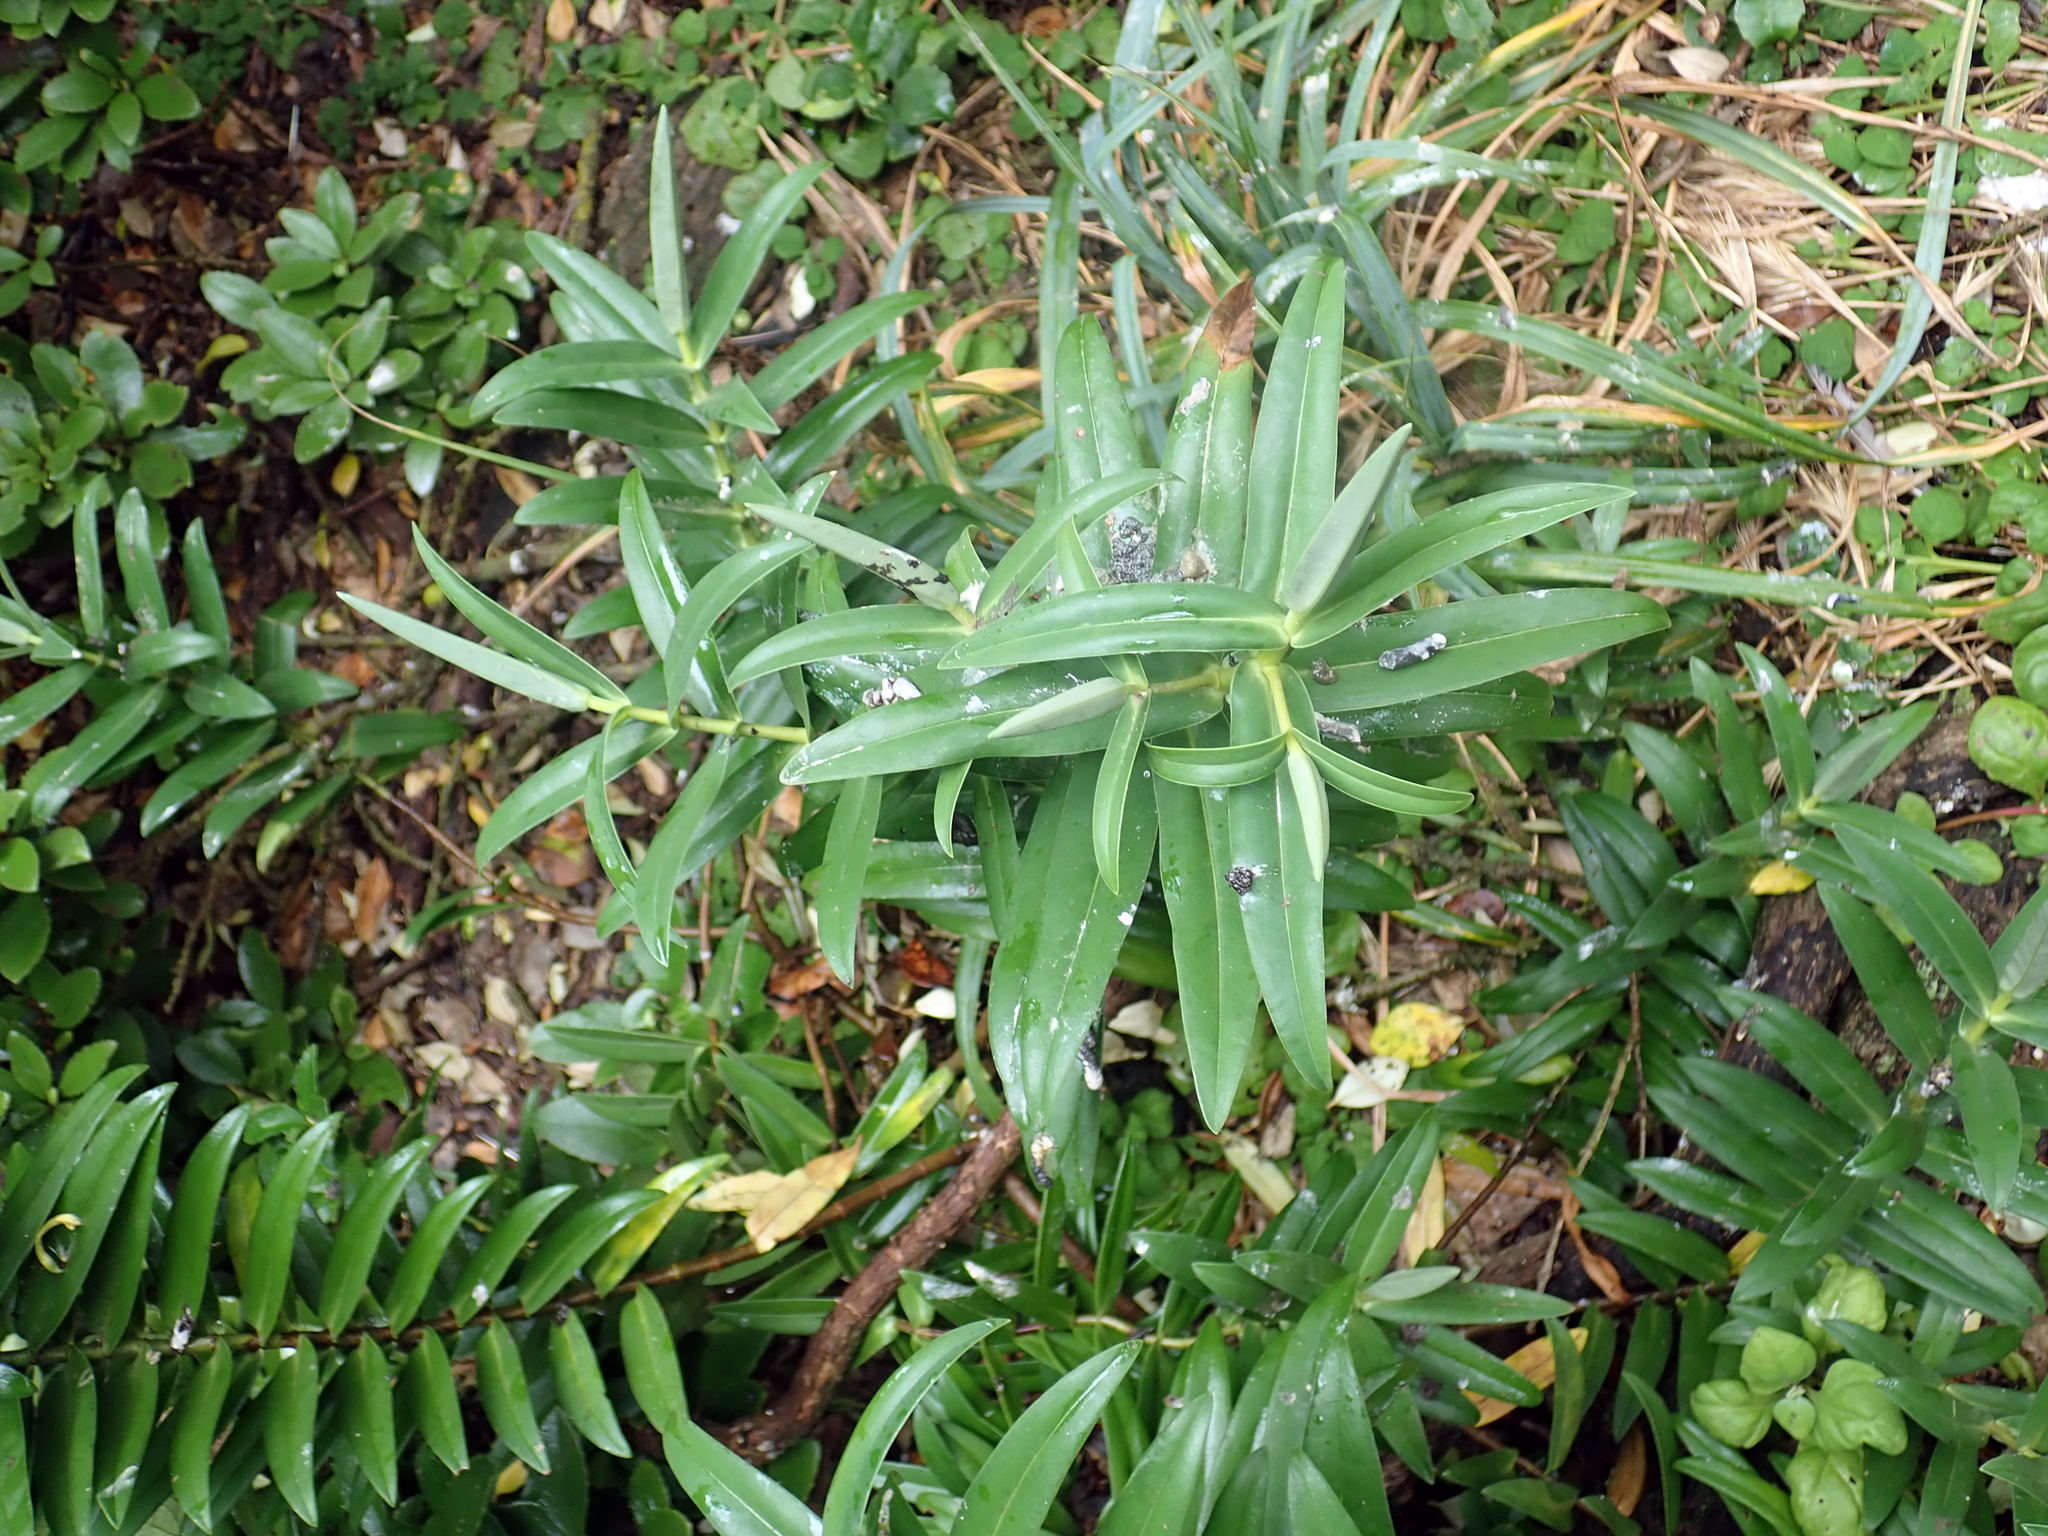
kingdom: Plantae
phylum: Tracheophyta
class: Magnoliopsida
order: Lamiales
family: Plantaginaceae
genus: Veronica
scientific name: Veronica dieffenbachii
